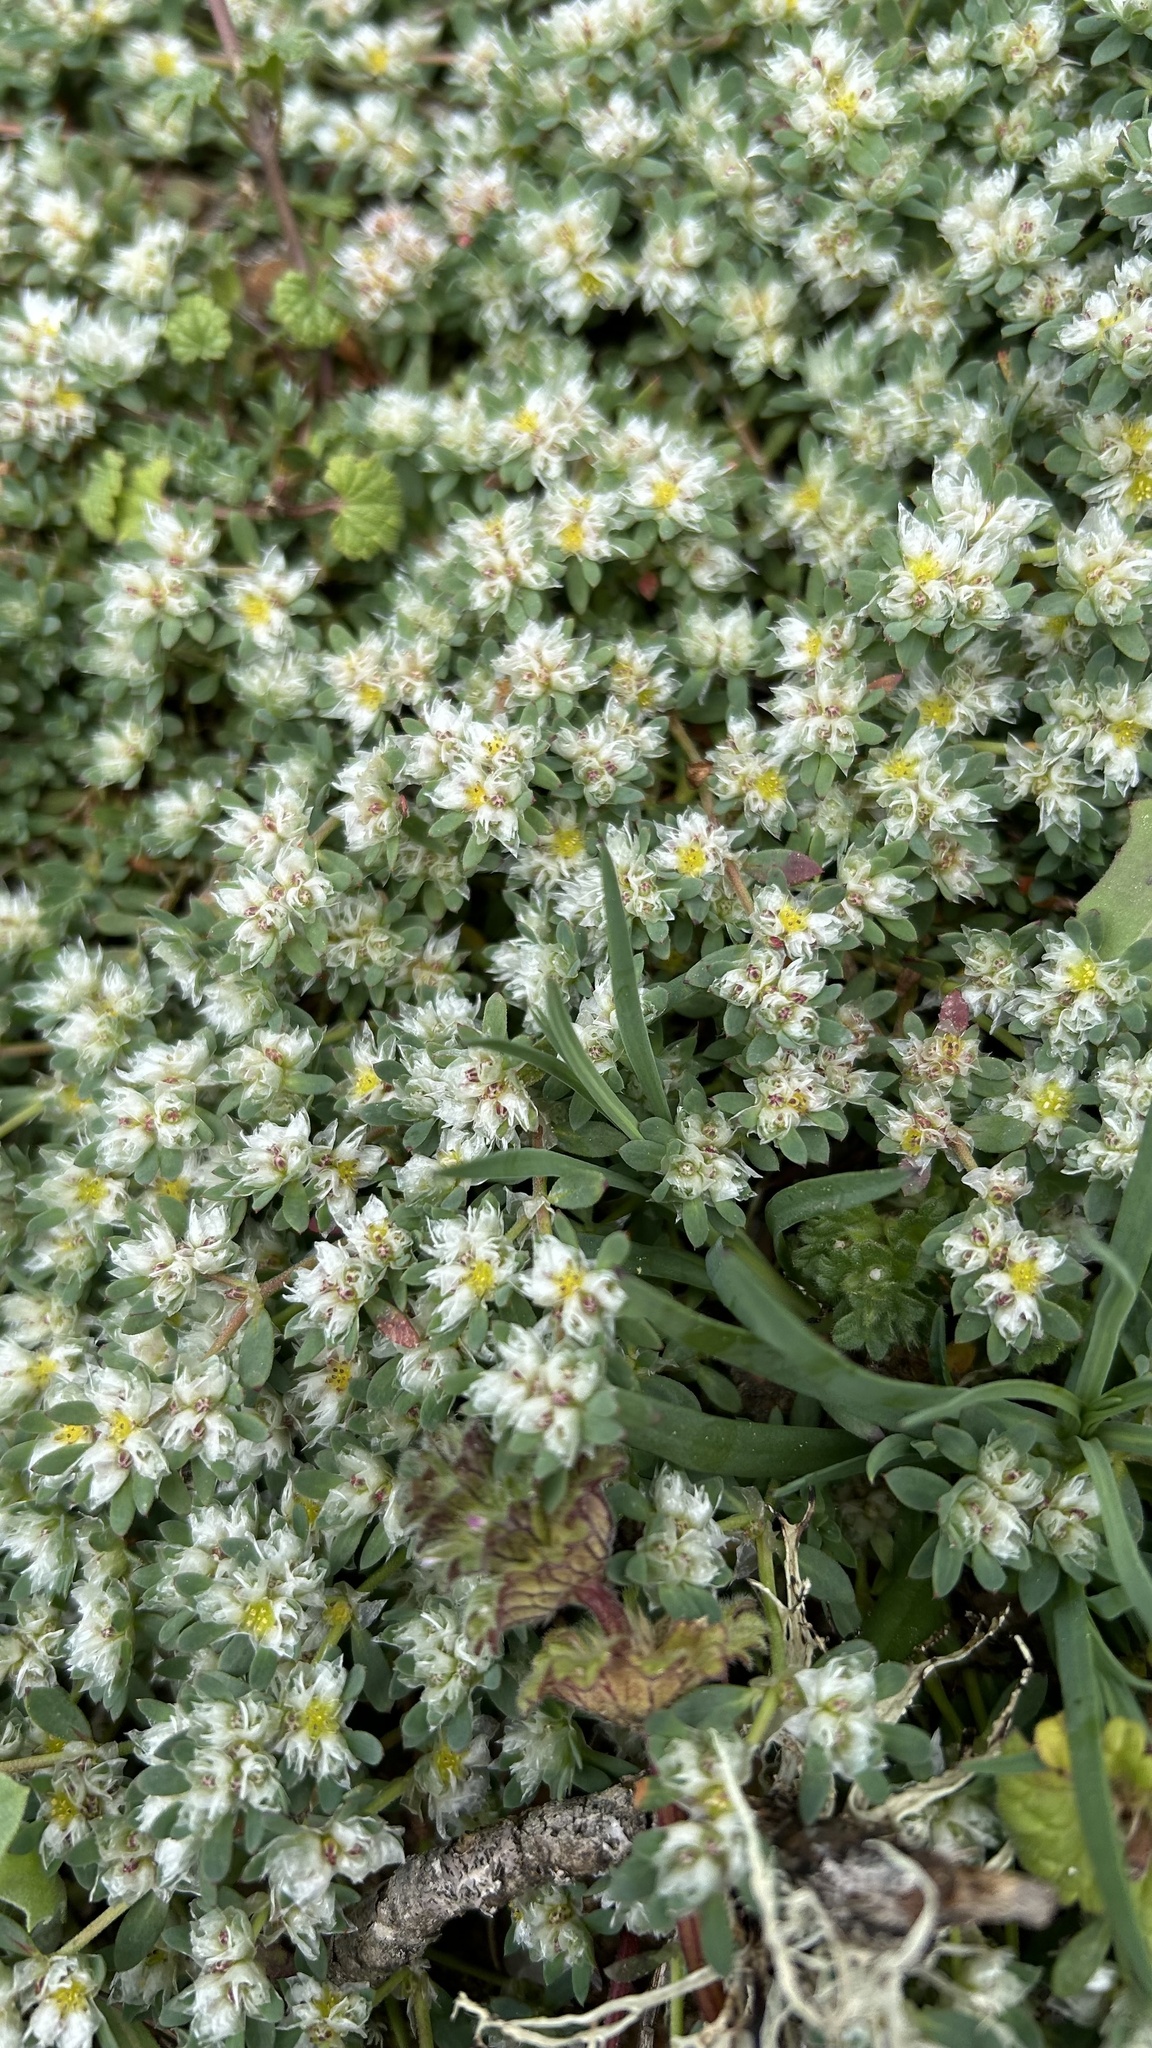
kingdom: Plantae
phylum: Tracheophyta
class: Magnoliopsida
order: Caryophyllales
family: Caryophyllaceae
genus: Paronychia
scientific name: Paronychia argentea
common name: Silver nailroot
